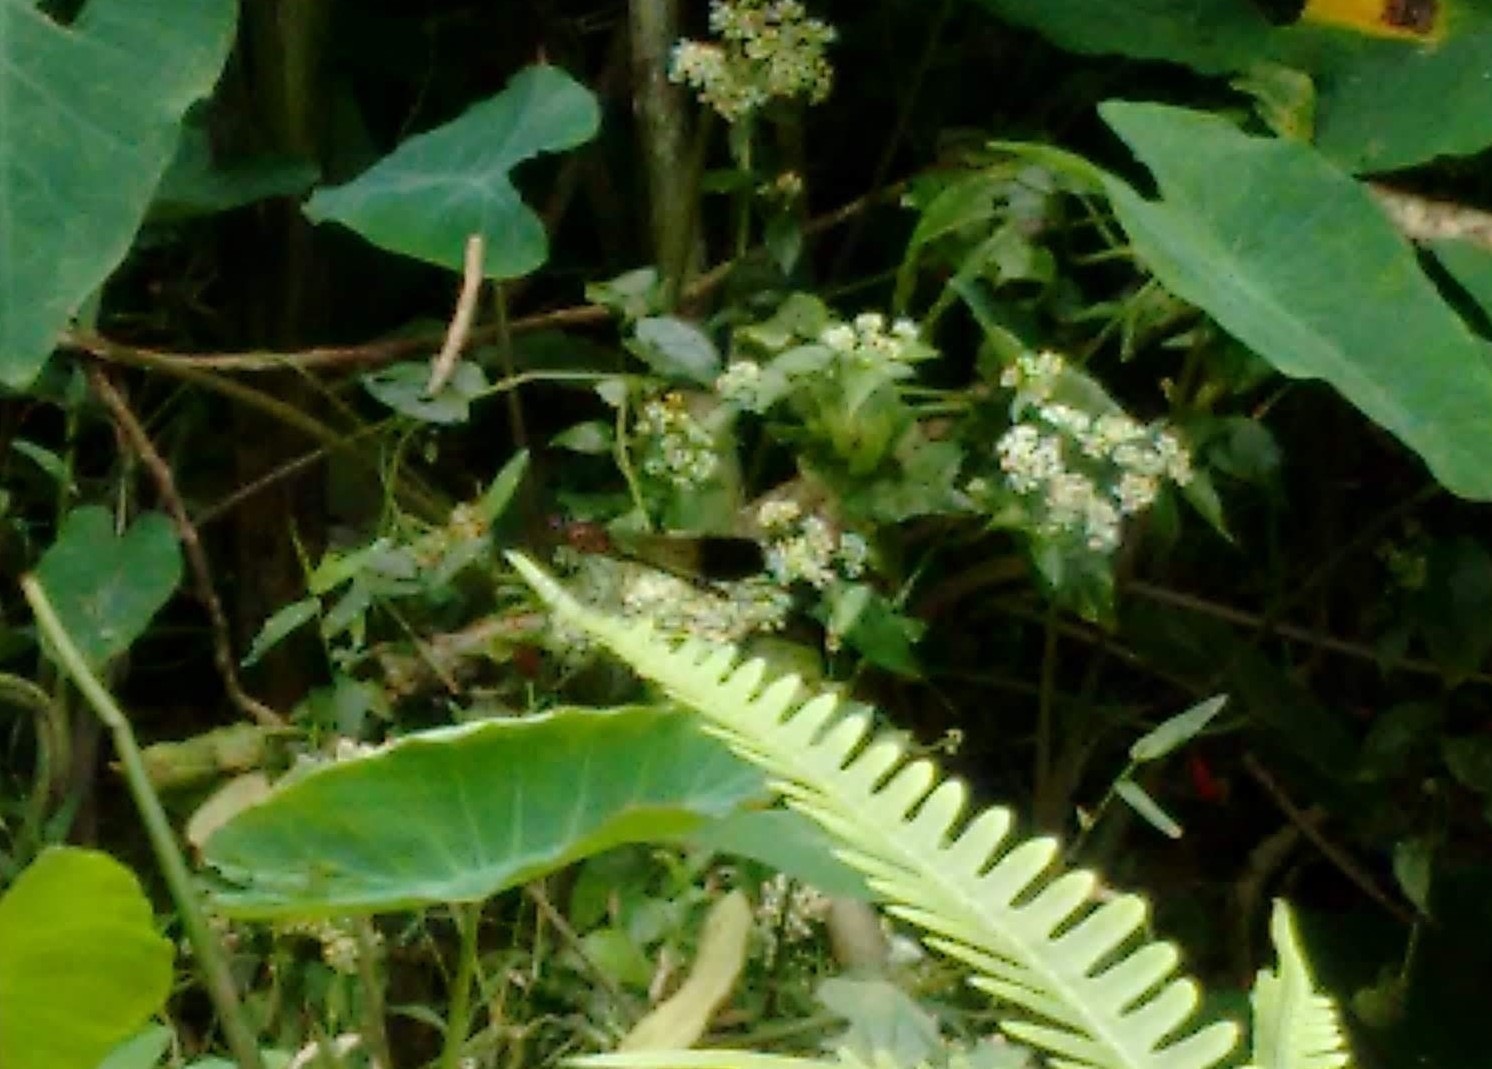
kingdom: Animalia
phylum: Arthropoda
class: Insecta
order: Odonata
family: Chlorocyphidae
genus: Heliocypha
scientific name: Heliocypha bisignata
